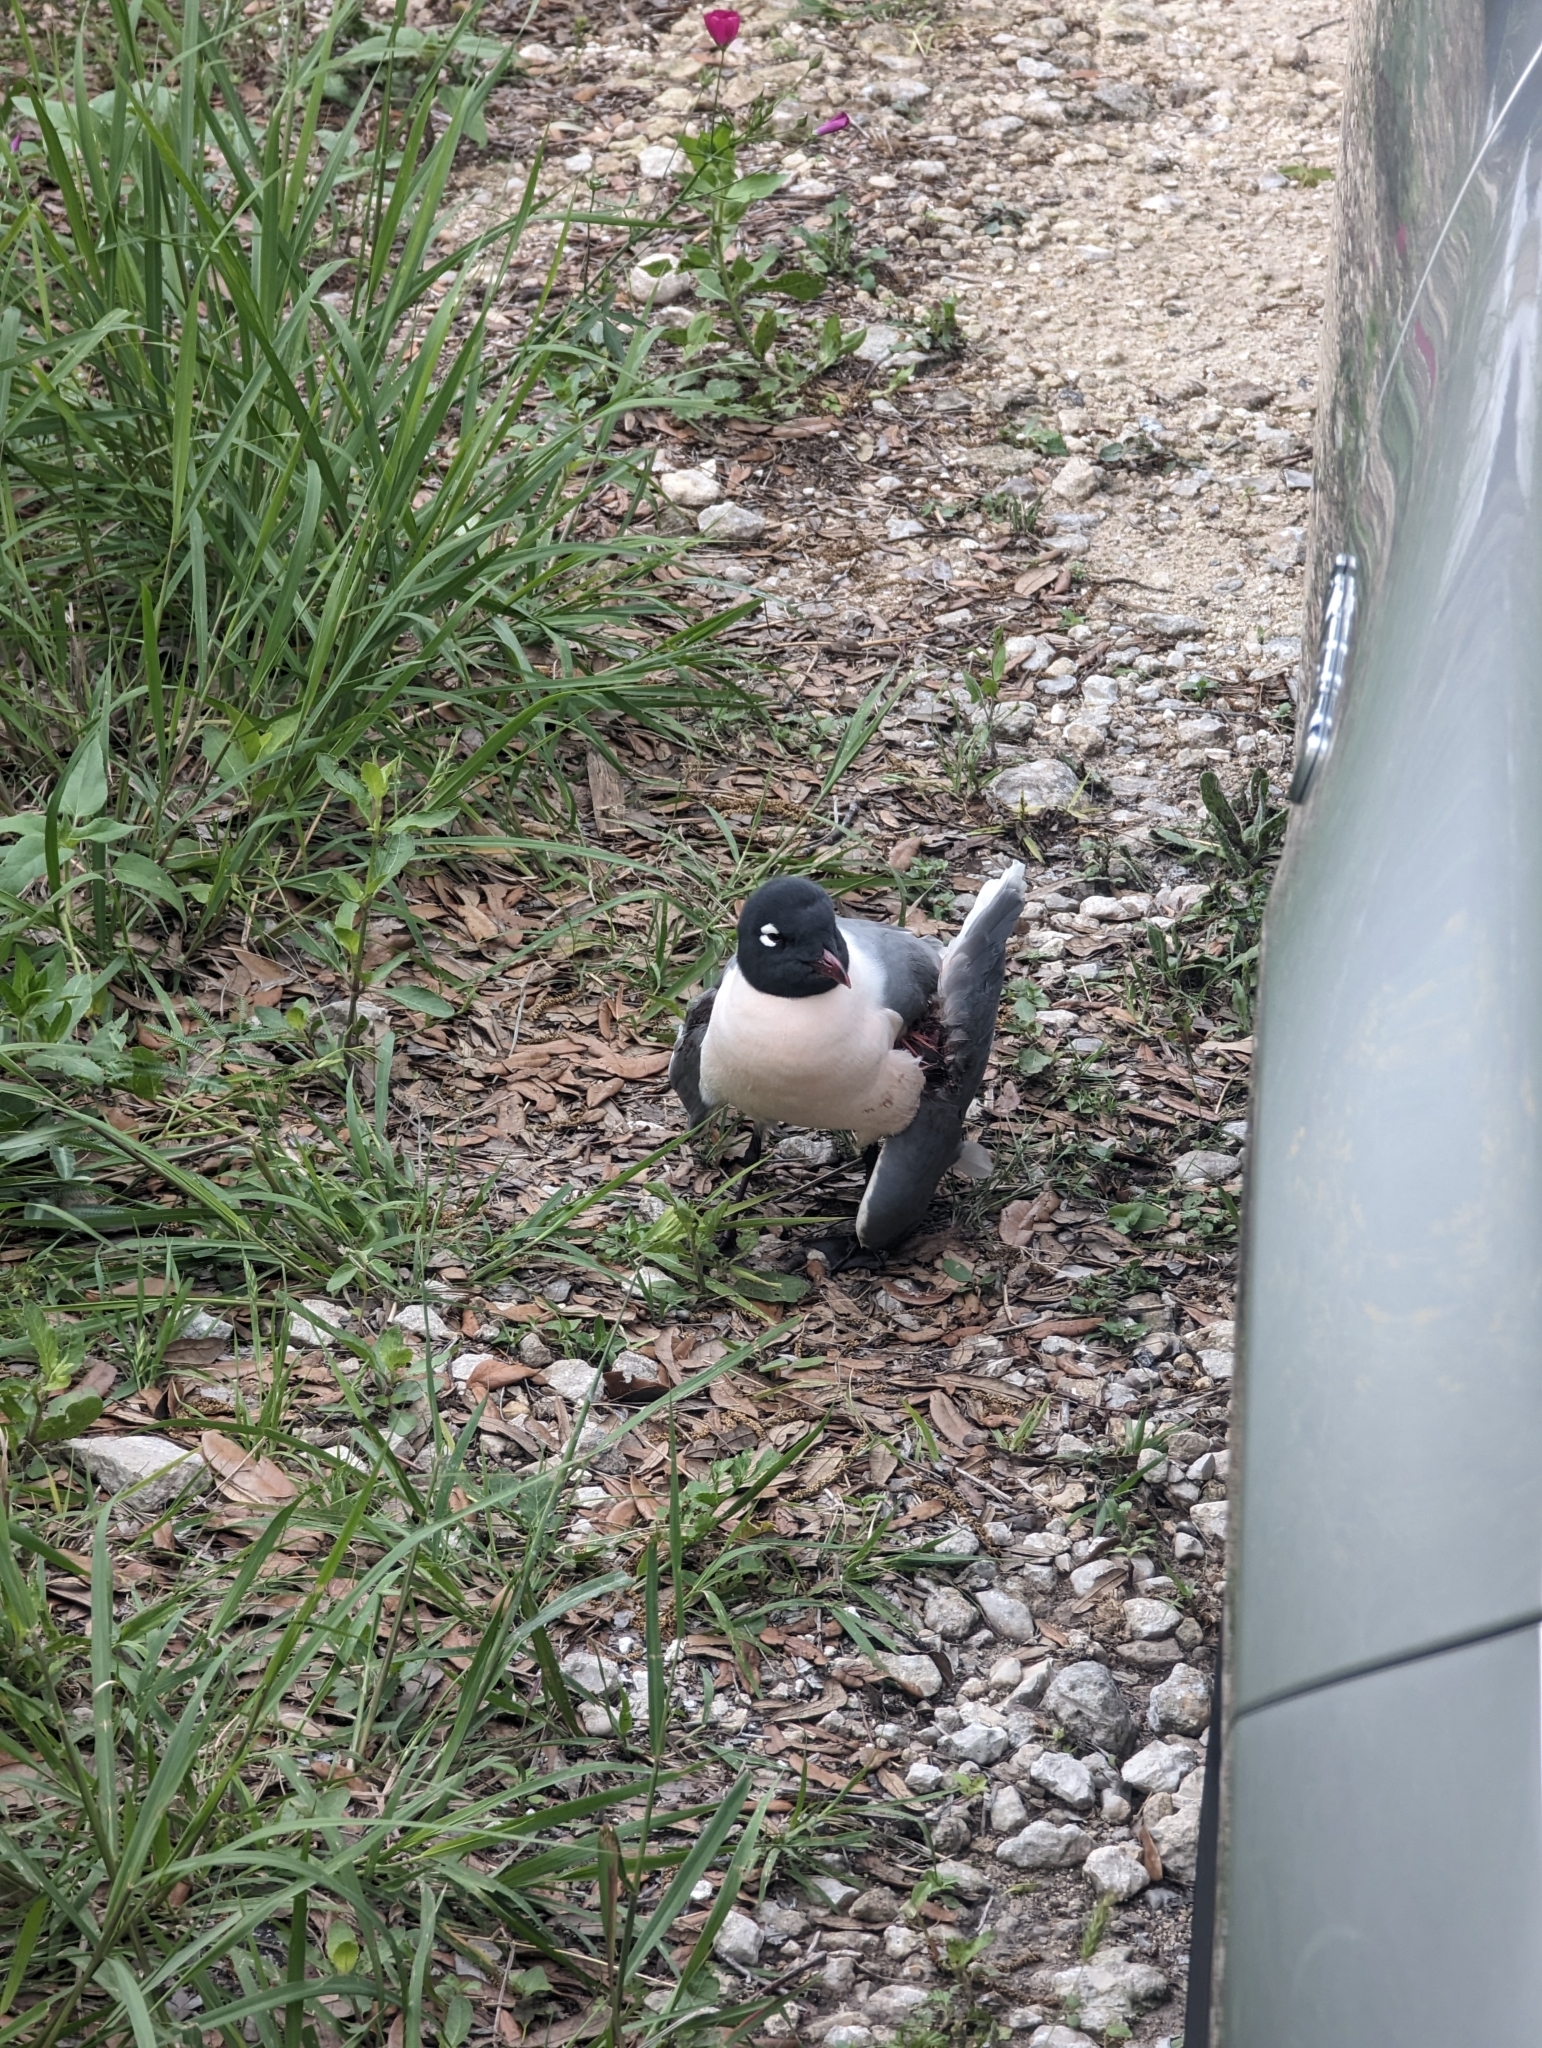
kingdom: Animalia
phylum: Chordata
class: Aves
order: Charadriiformes
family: Laridae
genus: Leucophaeus
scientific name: Leucophaeus pipixcan
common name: Franklin's gull
